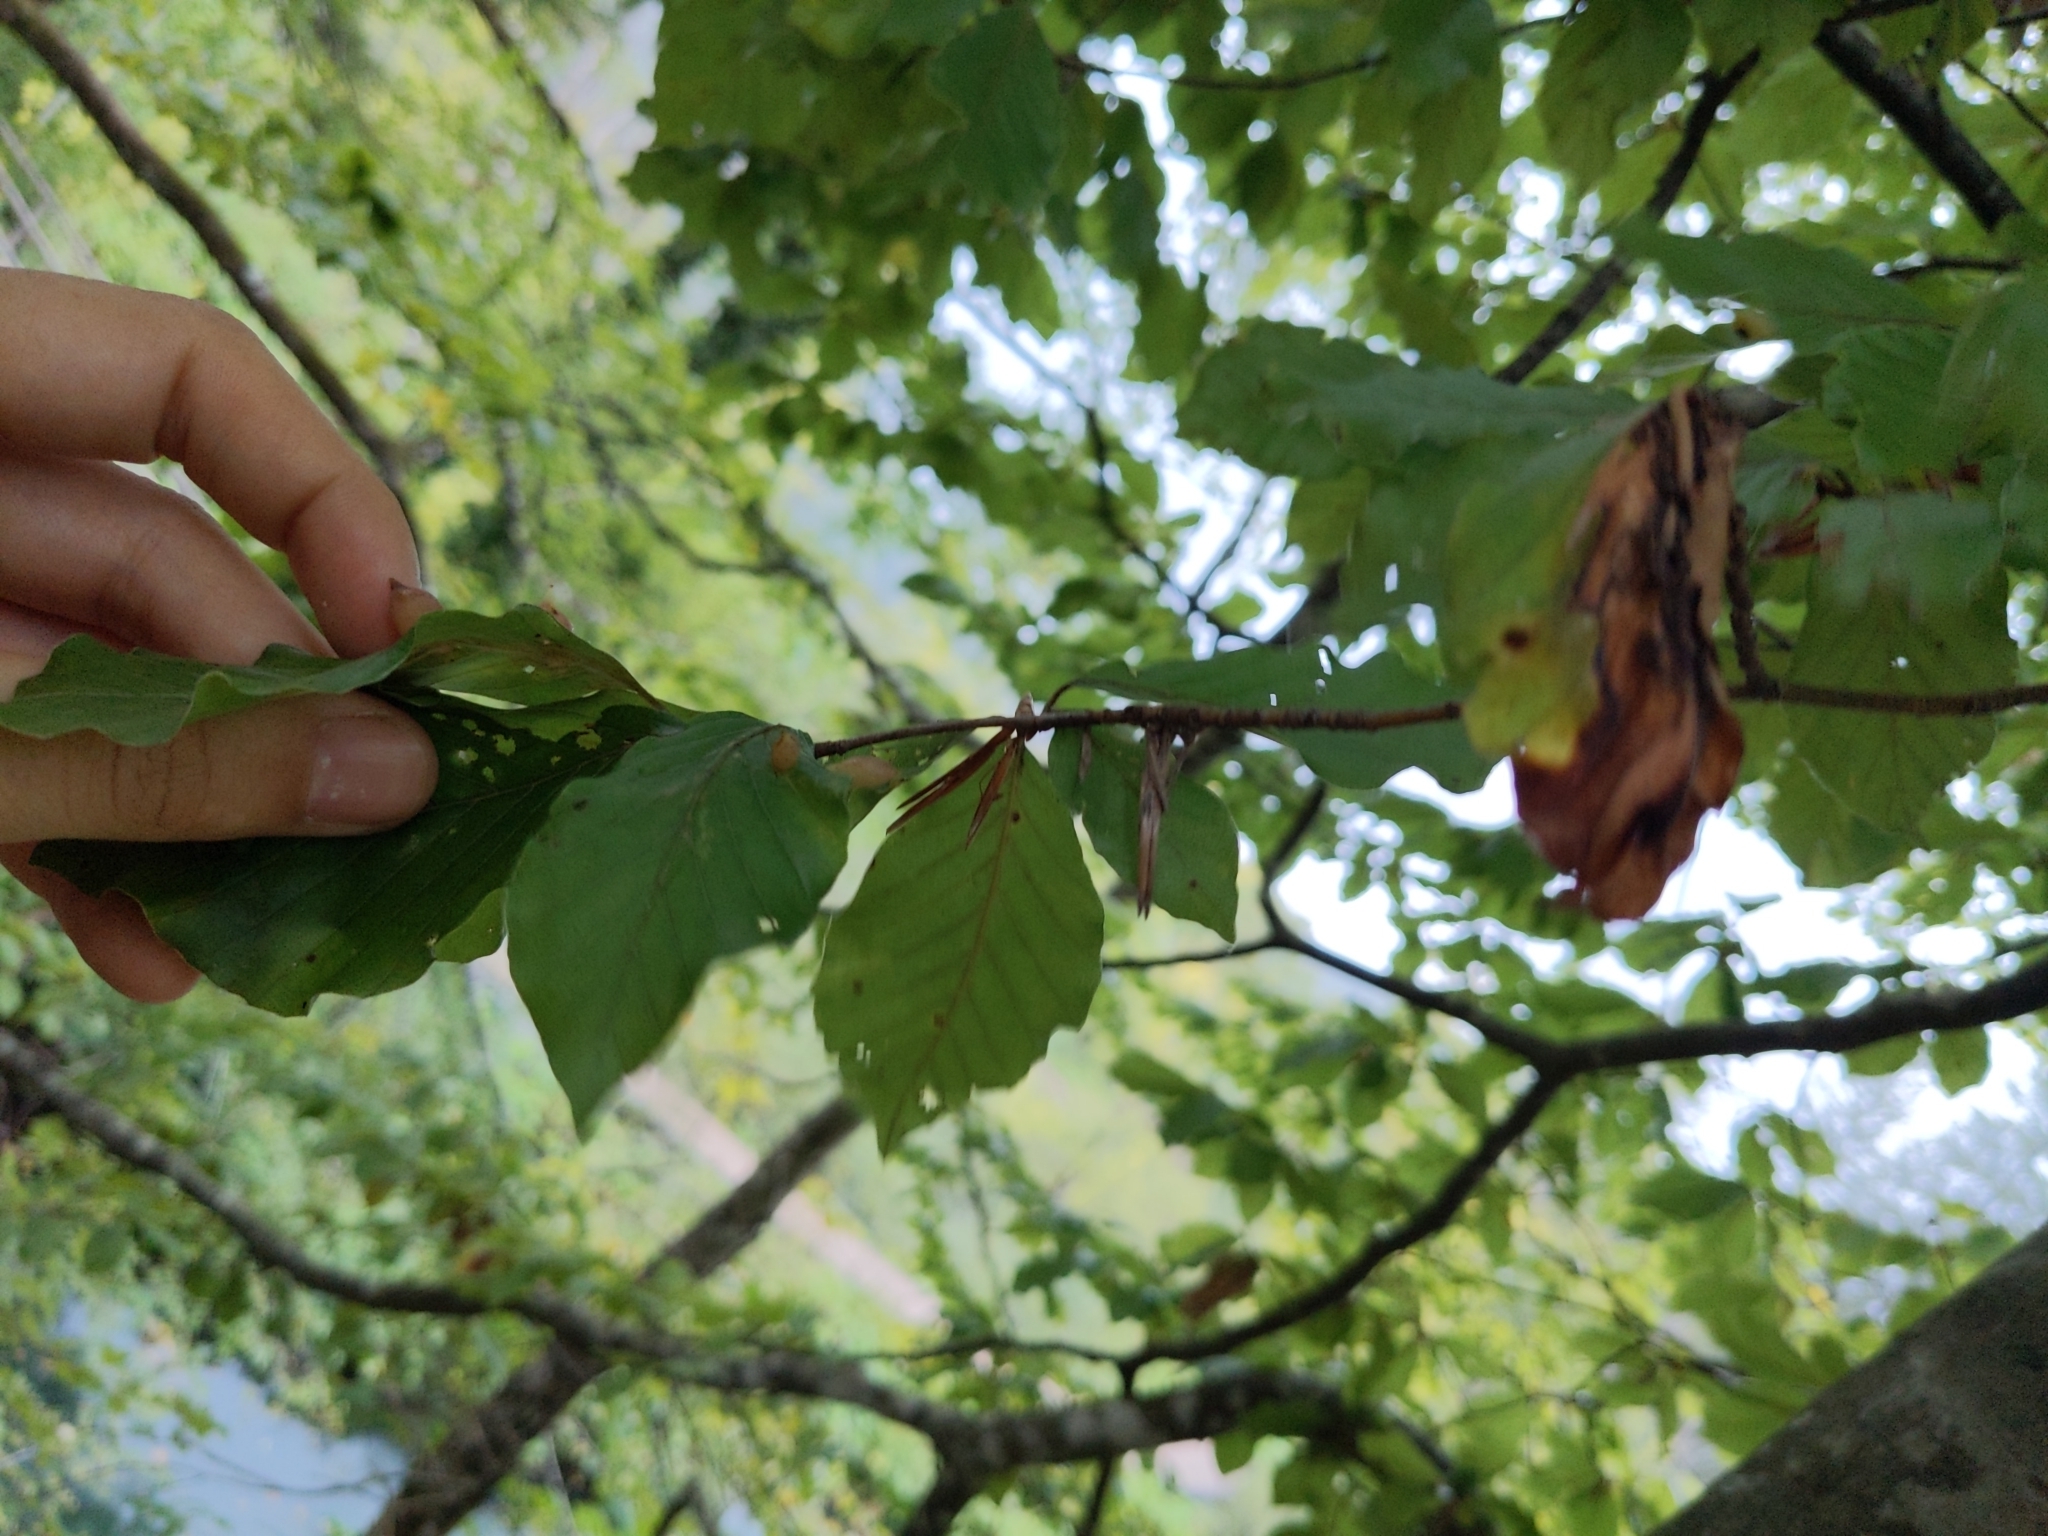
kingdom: Plantae
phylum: Tracheophyta
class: Magnoliopsida
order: Fagales
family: Fagaceae
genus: Fagus
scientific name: Fagus sylvatica
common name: Beech
